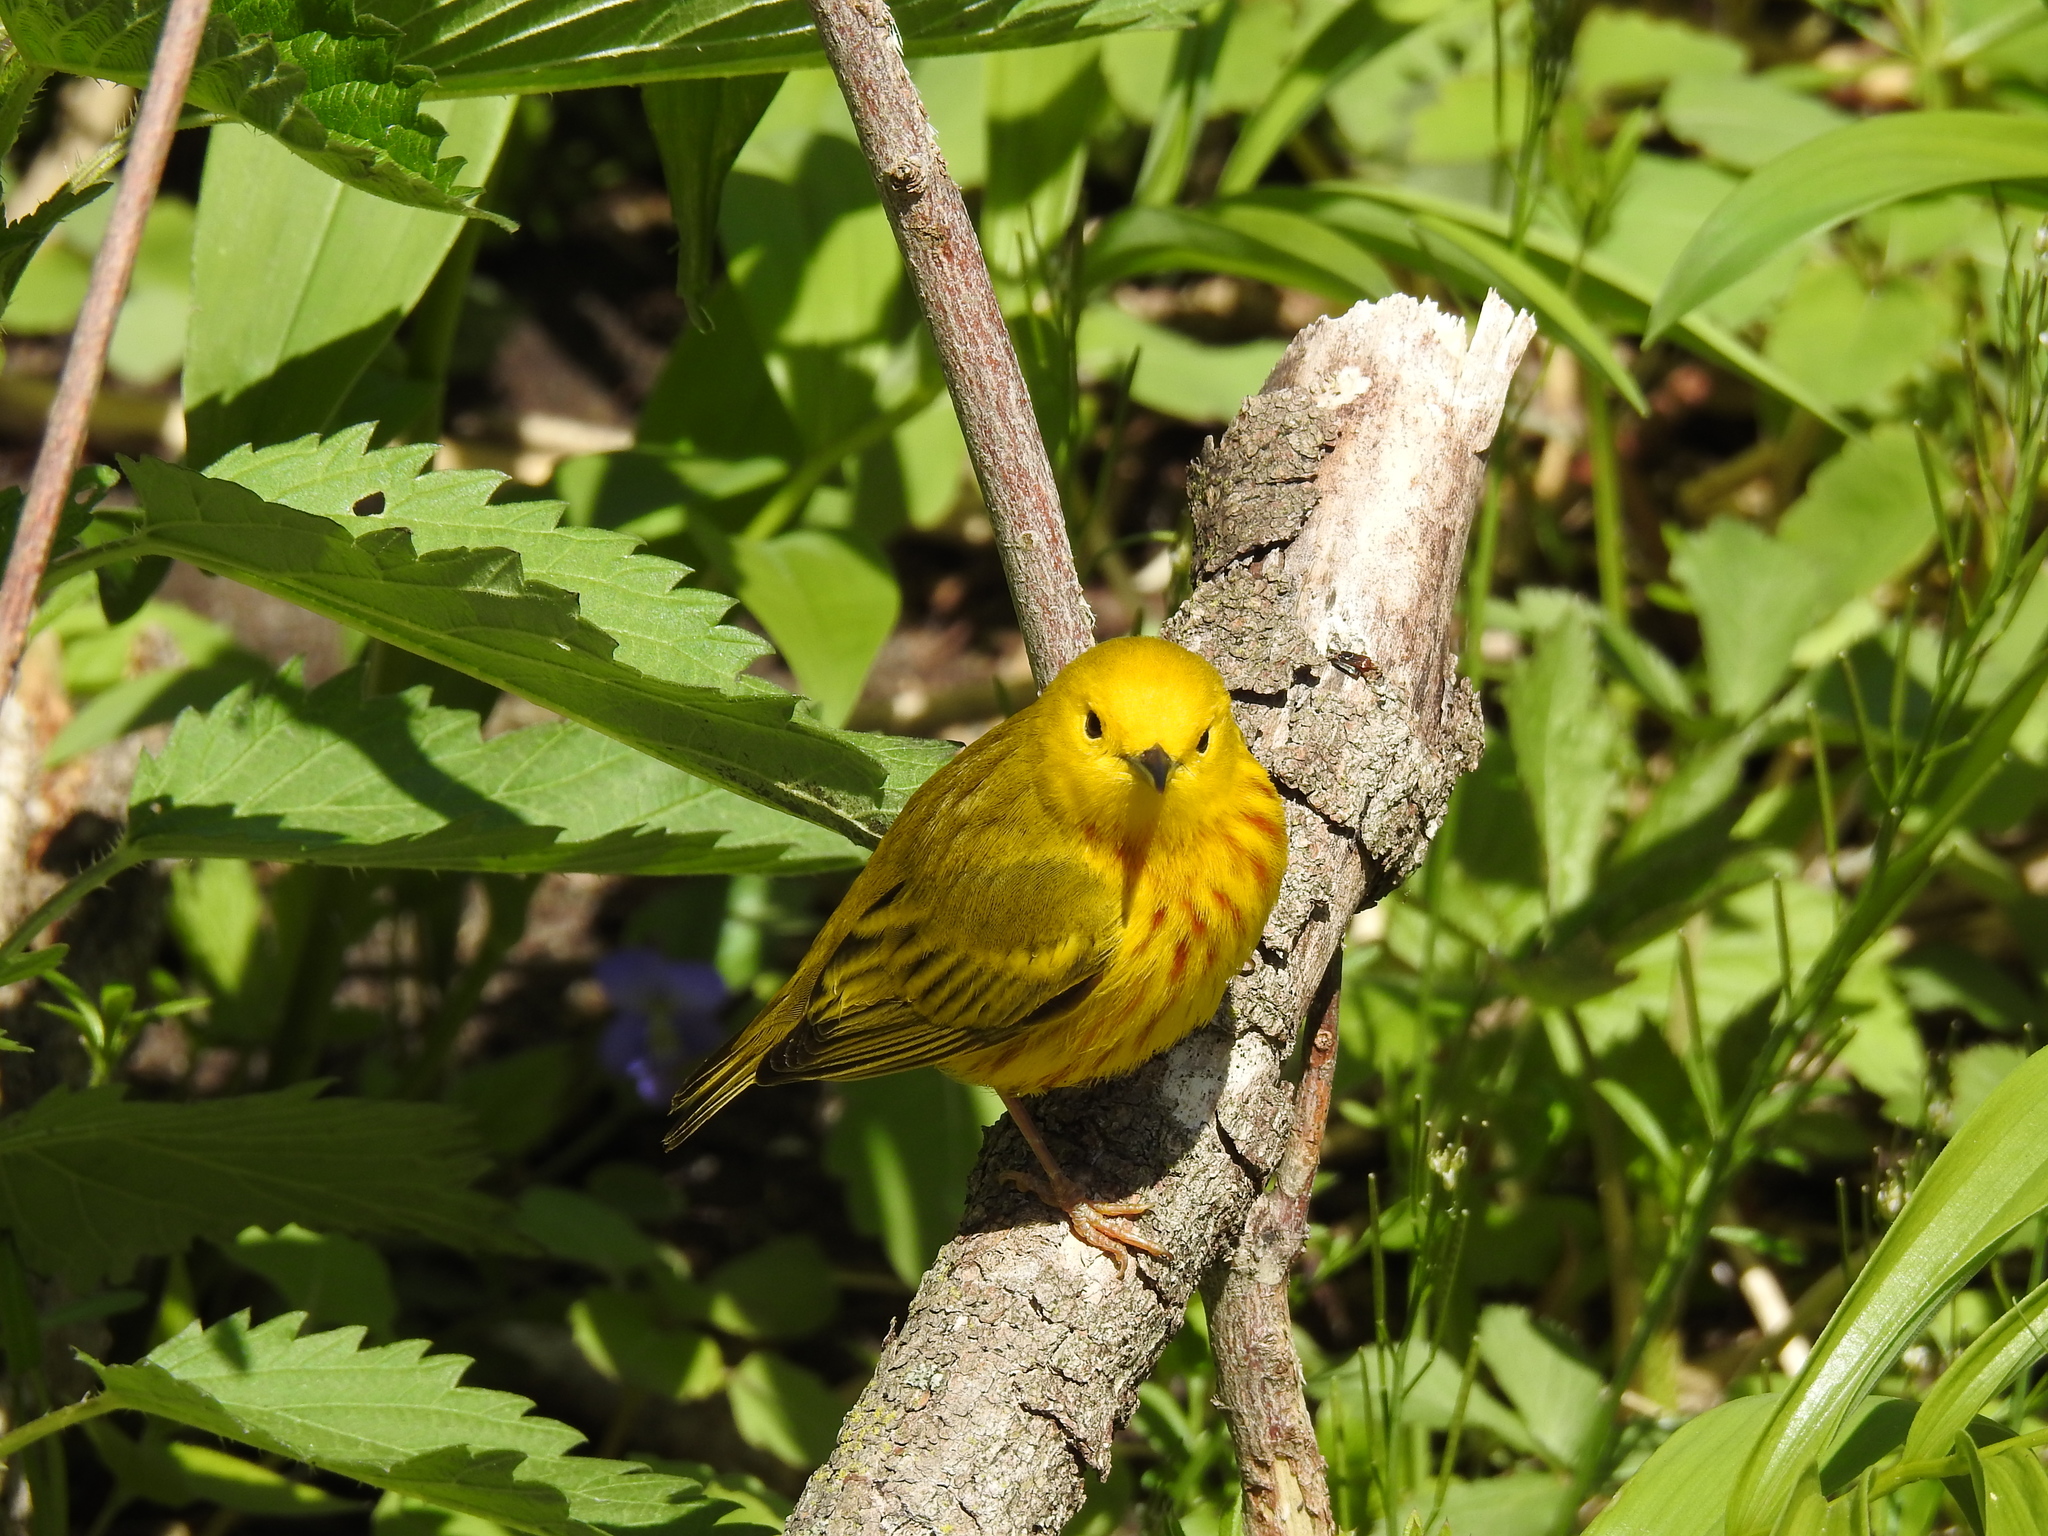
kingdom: Animalia
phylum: Chordata
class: Aves
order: Passeriformes
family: Parulidae
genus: Setophaga
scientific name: Setophaga petechia
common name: Yellow warbler
